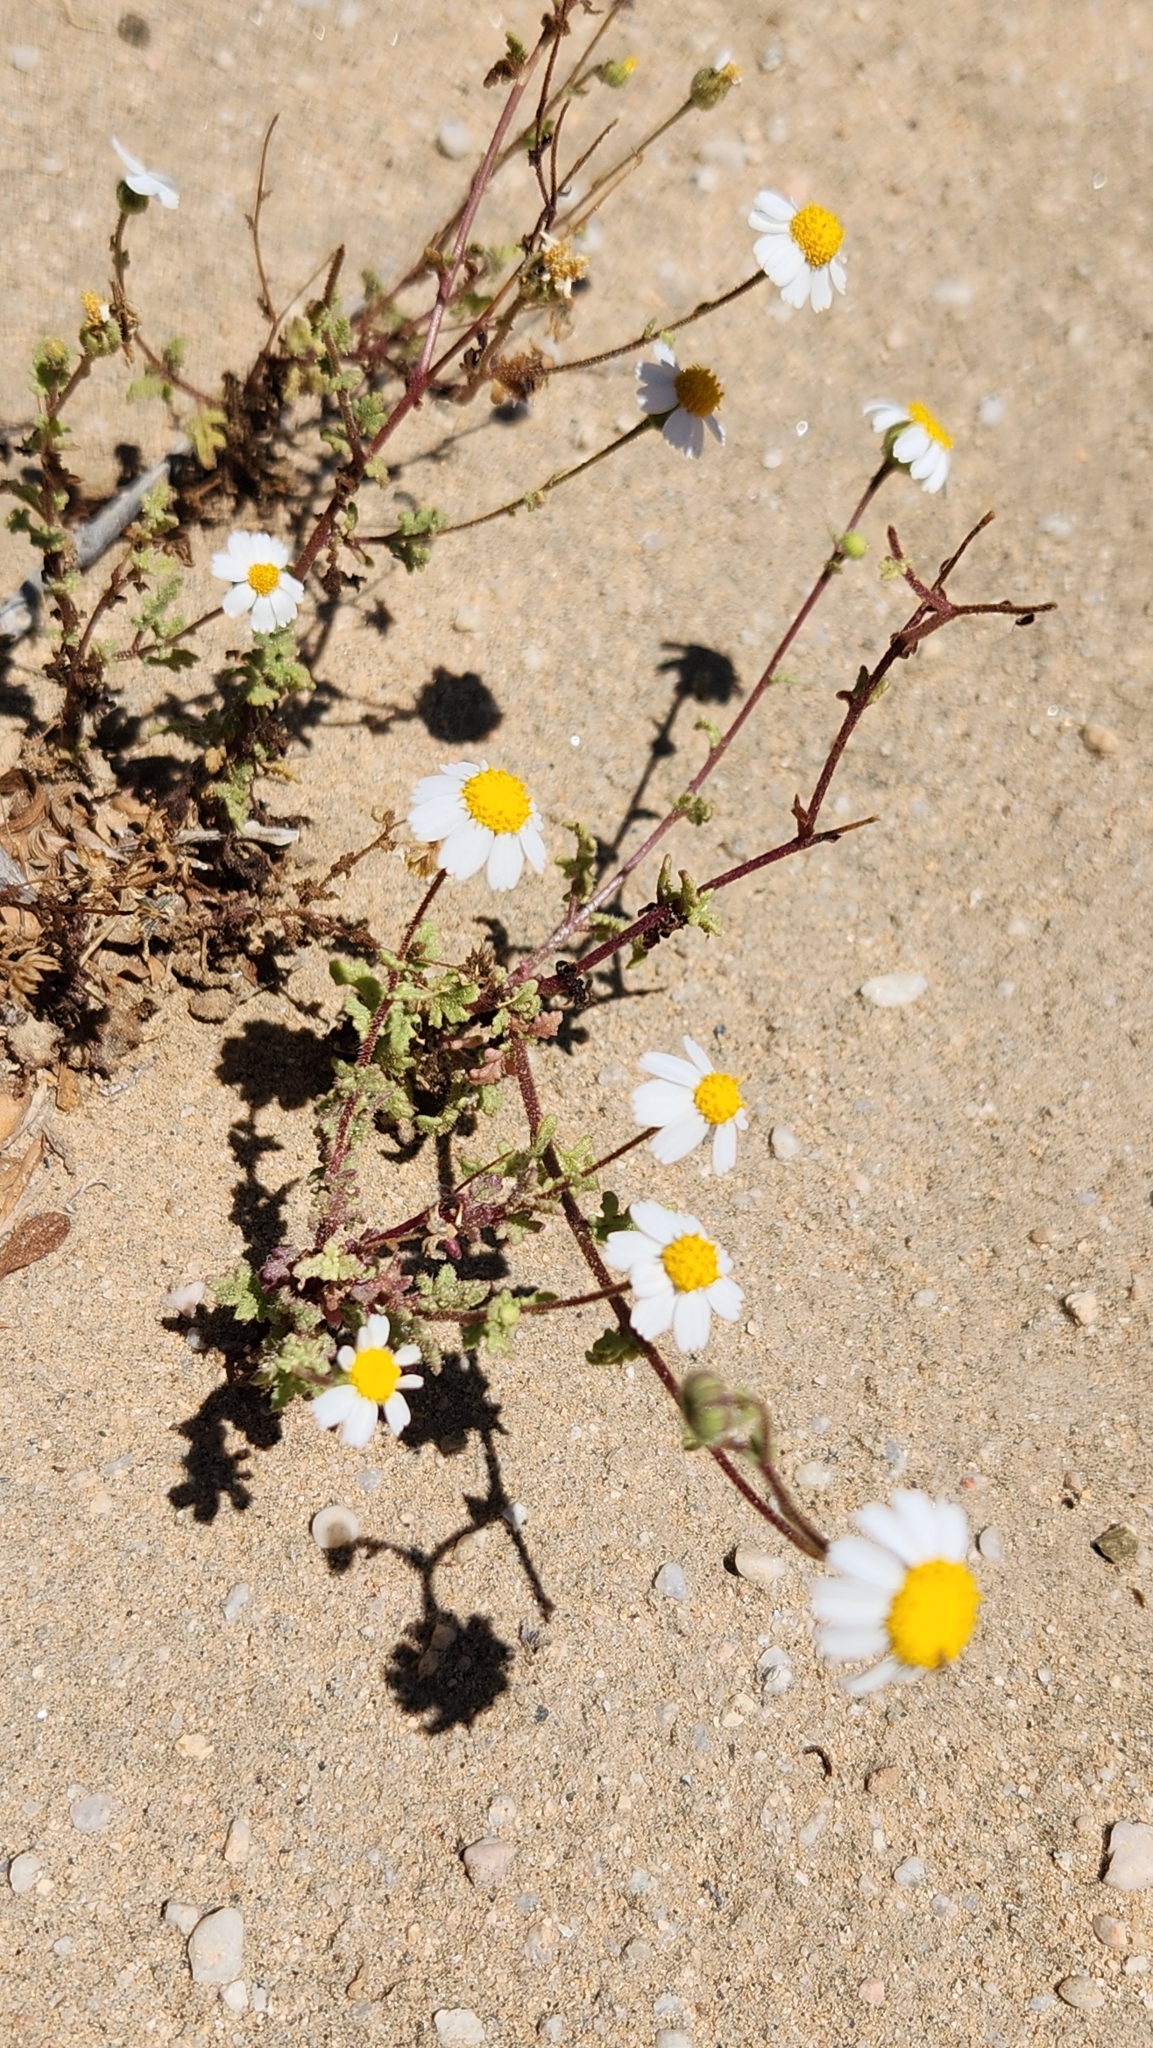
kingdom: Plantae
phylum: Tracheophyta
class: Magnoliopsida
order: Asterales
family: Asteraceae
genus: Perityle
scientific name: Perityle crassifolia
